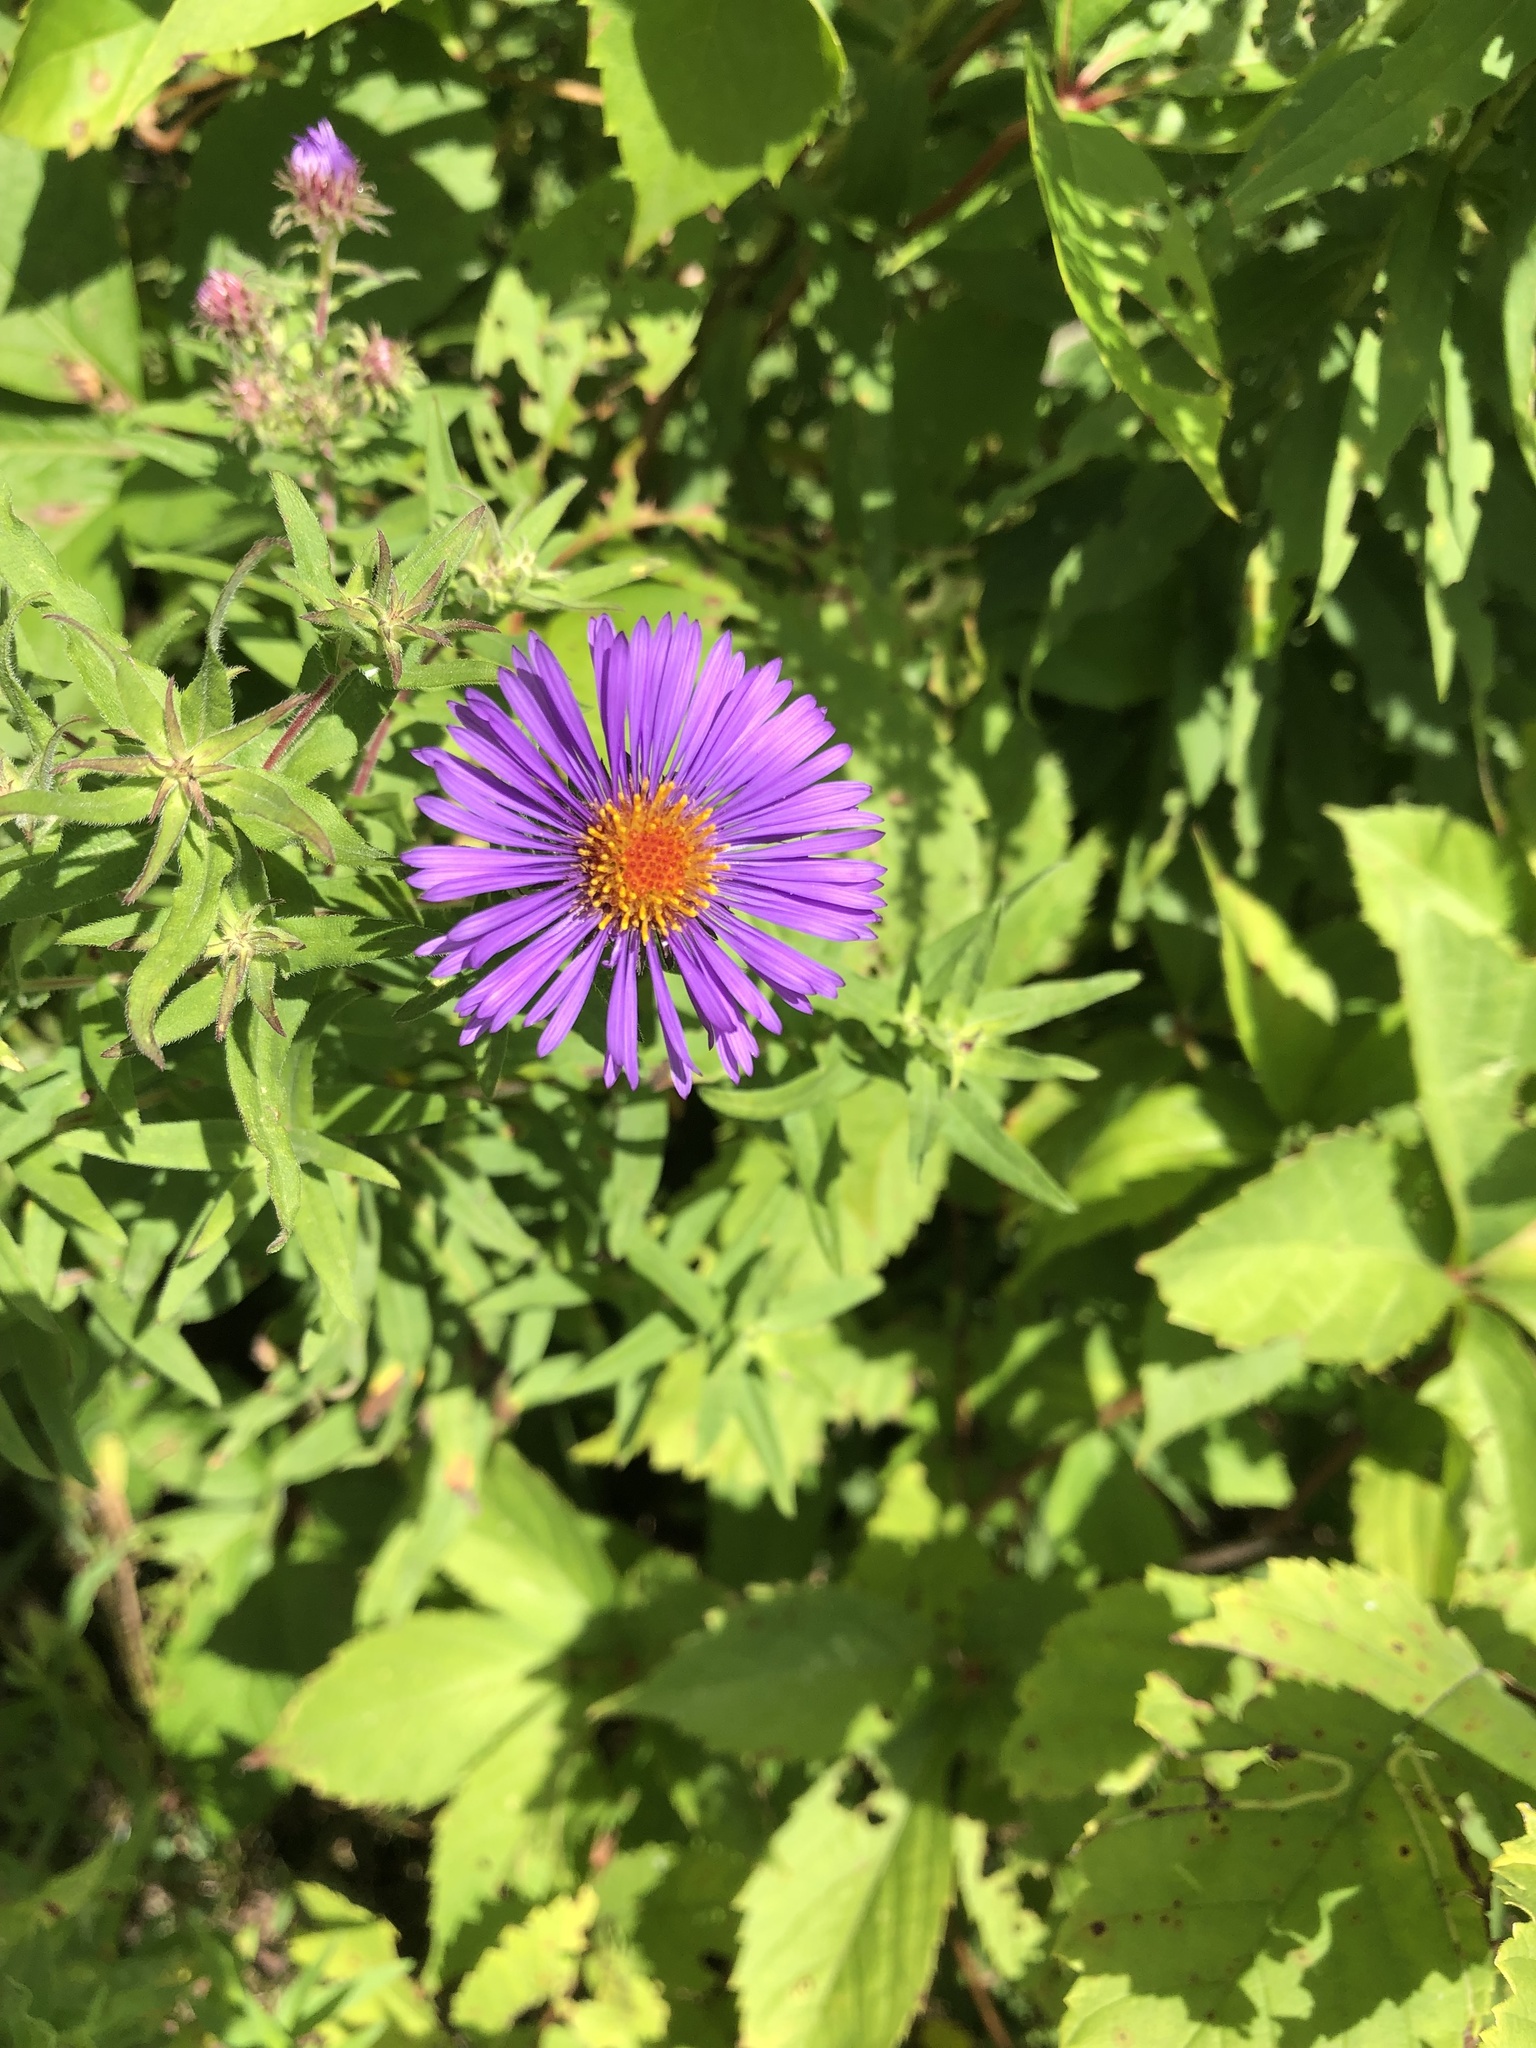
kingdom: Plantae
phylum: Tracheophyta
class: Magnoliopsida
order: Asterales
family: Asteraceae
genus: Symphyotrichum
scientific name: Symphyotrichum novae-angliae
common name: Michaelmas daisy
